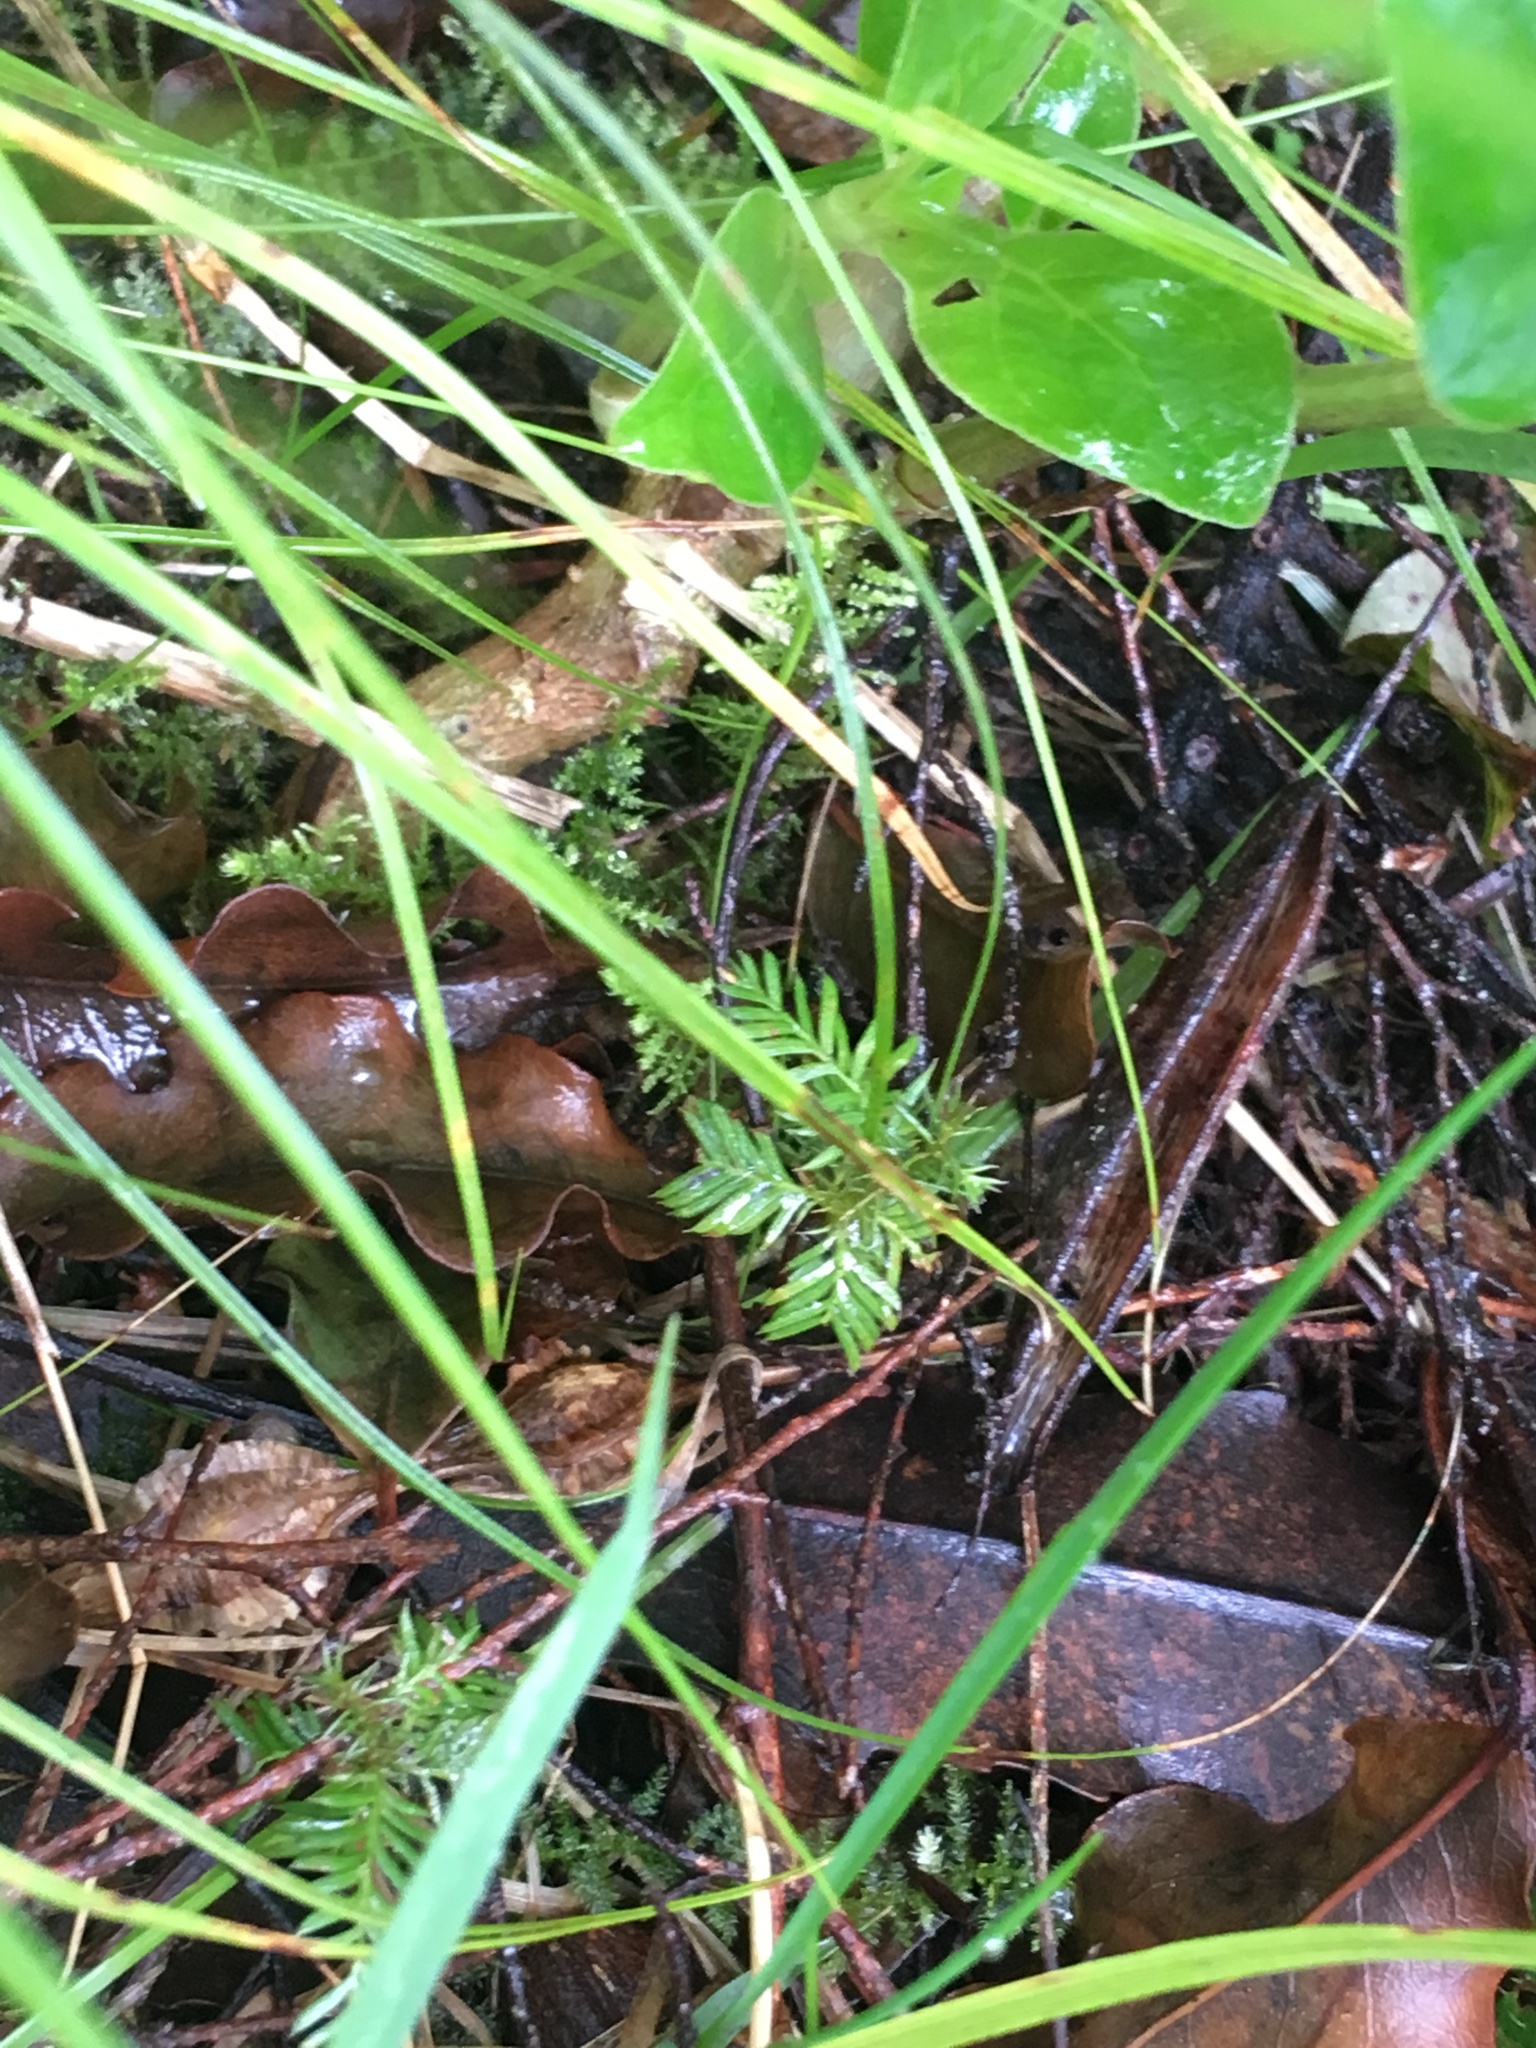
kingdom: Plantae
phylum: Tracheophyta
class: Pinopsida
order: Pinales
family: Podocarpaceae
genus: Dacrycarpus
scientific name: Dacrycarpus dacrydioides
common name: White pine
